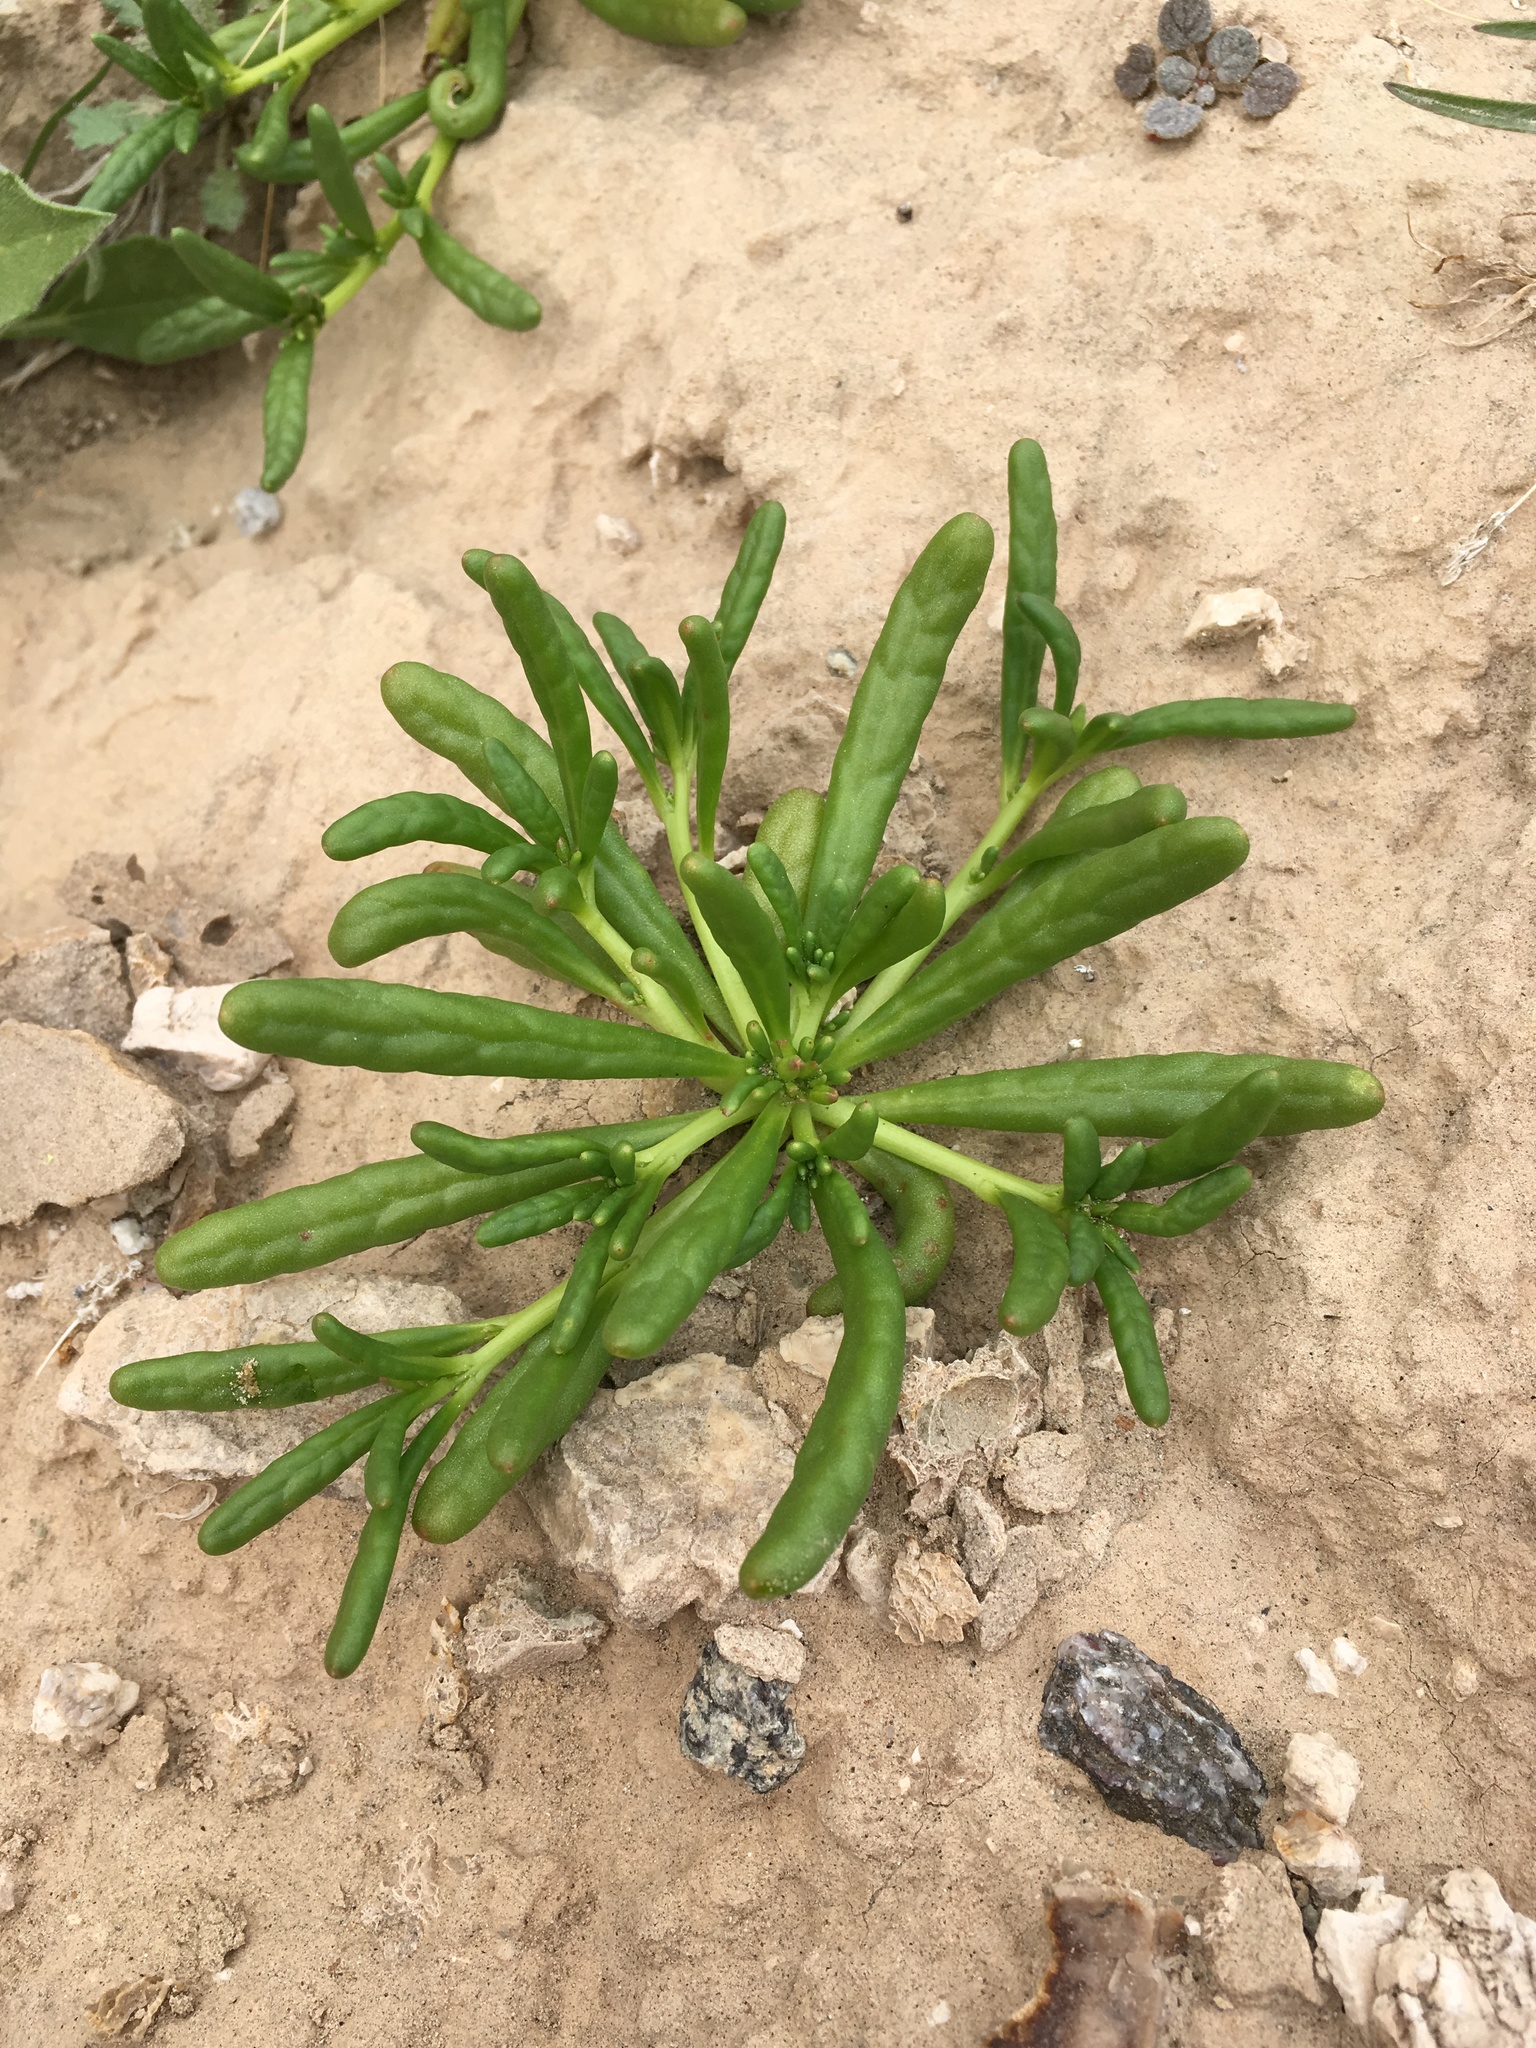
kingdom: Plantae
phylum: Tracheophyta
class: Magnoliopsida
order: Caryophyllales
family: Montiaceae
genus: Thingia
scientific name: Thingia ambigua
